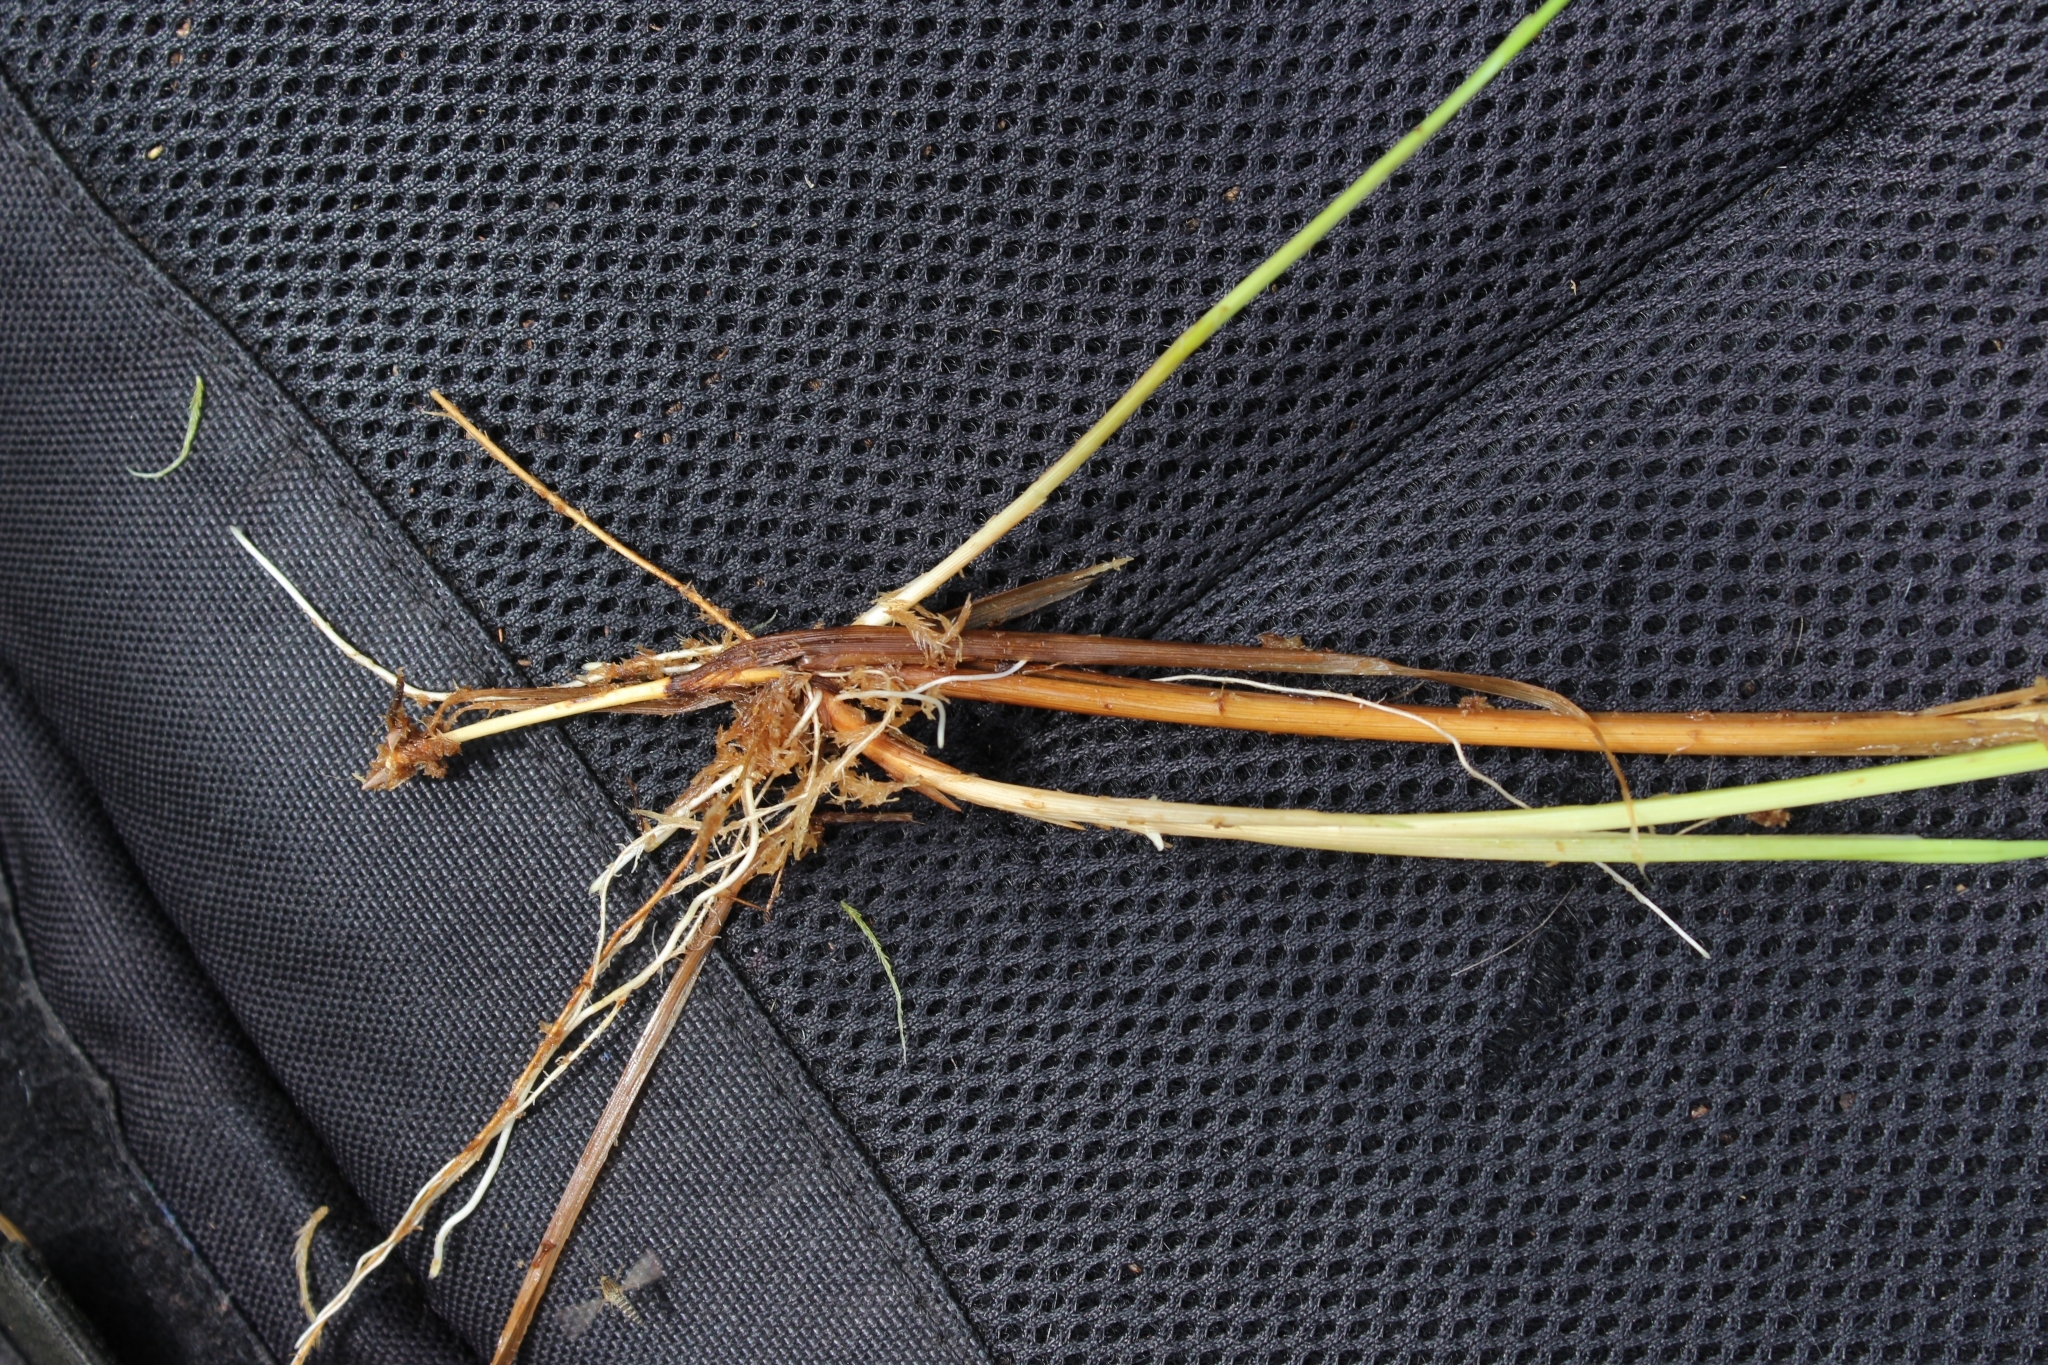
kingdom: Plantae
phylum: Tracheophyta
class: Liliopsida
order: Poales
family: Cyperaceae
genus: Carex
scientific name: Carex canescens
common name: White sedge
